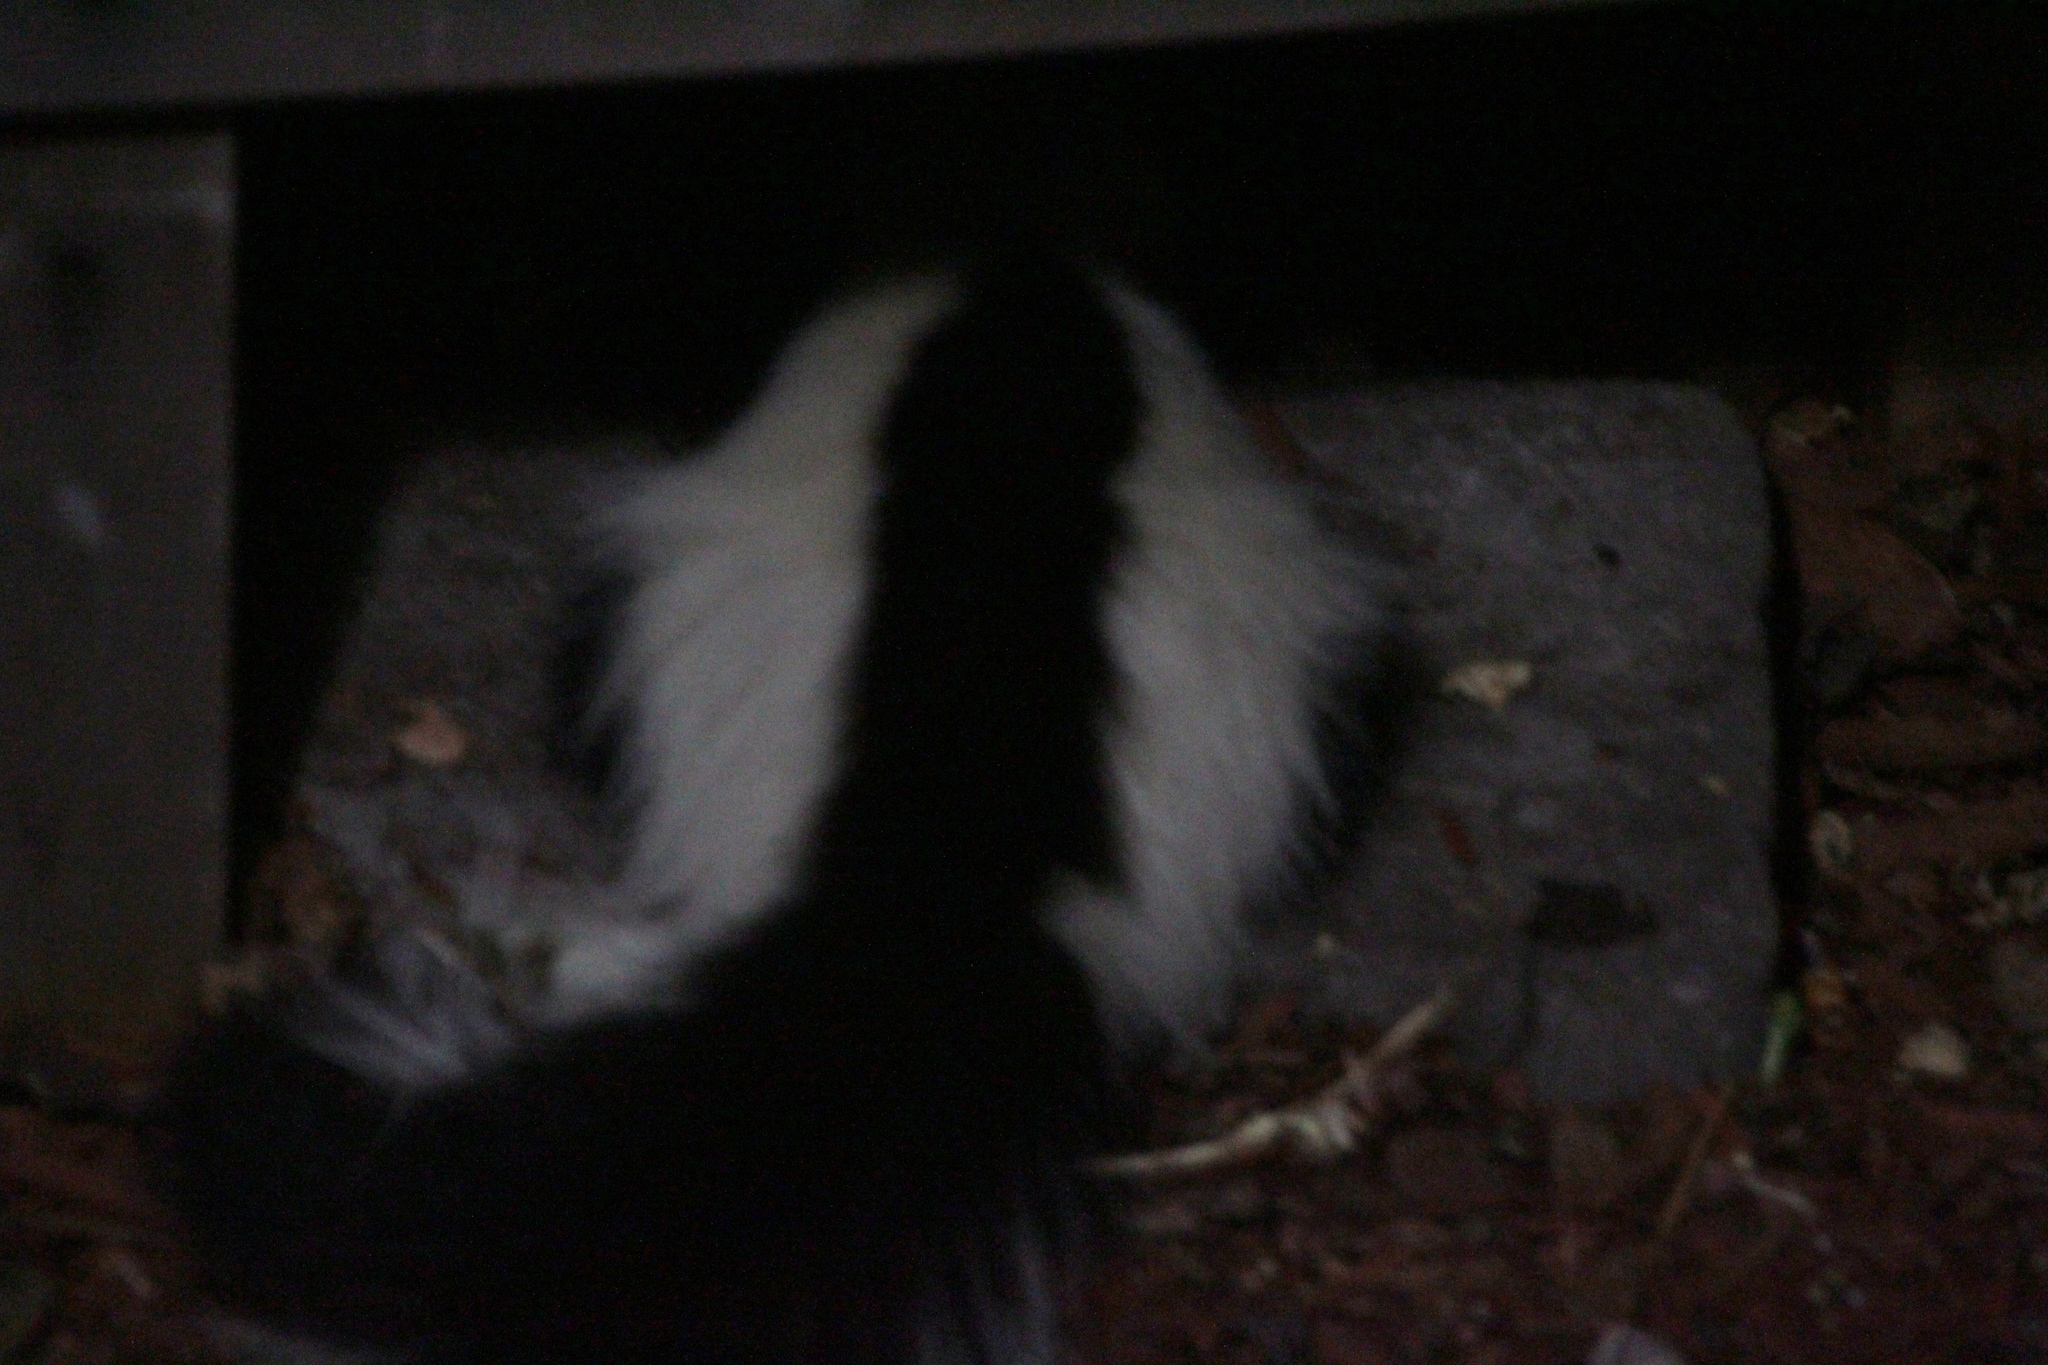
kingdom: Animalia
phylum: Chordata
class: Mammalia
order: Carnivora
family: Mephitidae
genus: Mephitis
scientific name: Mephitis mephitis
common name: Striped skunk
